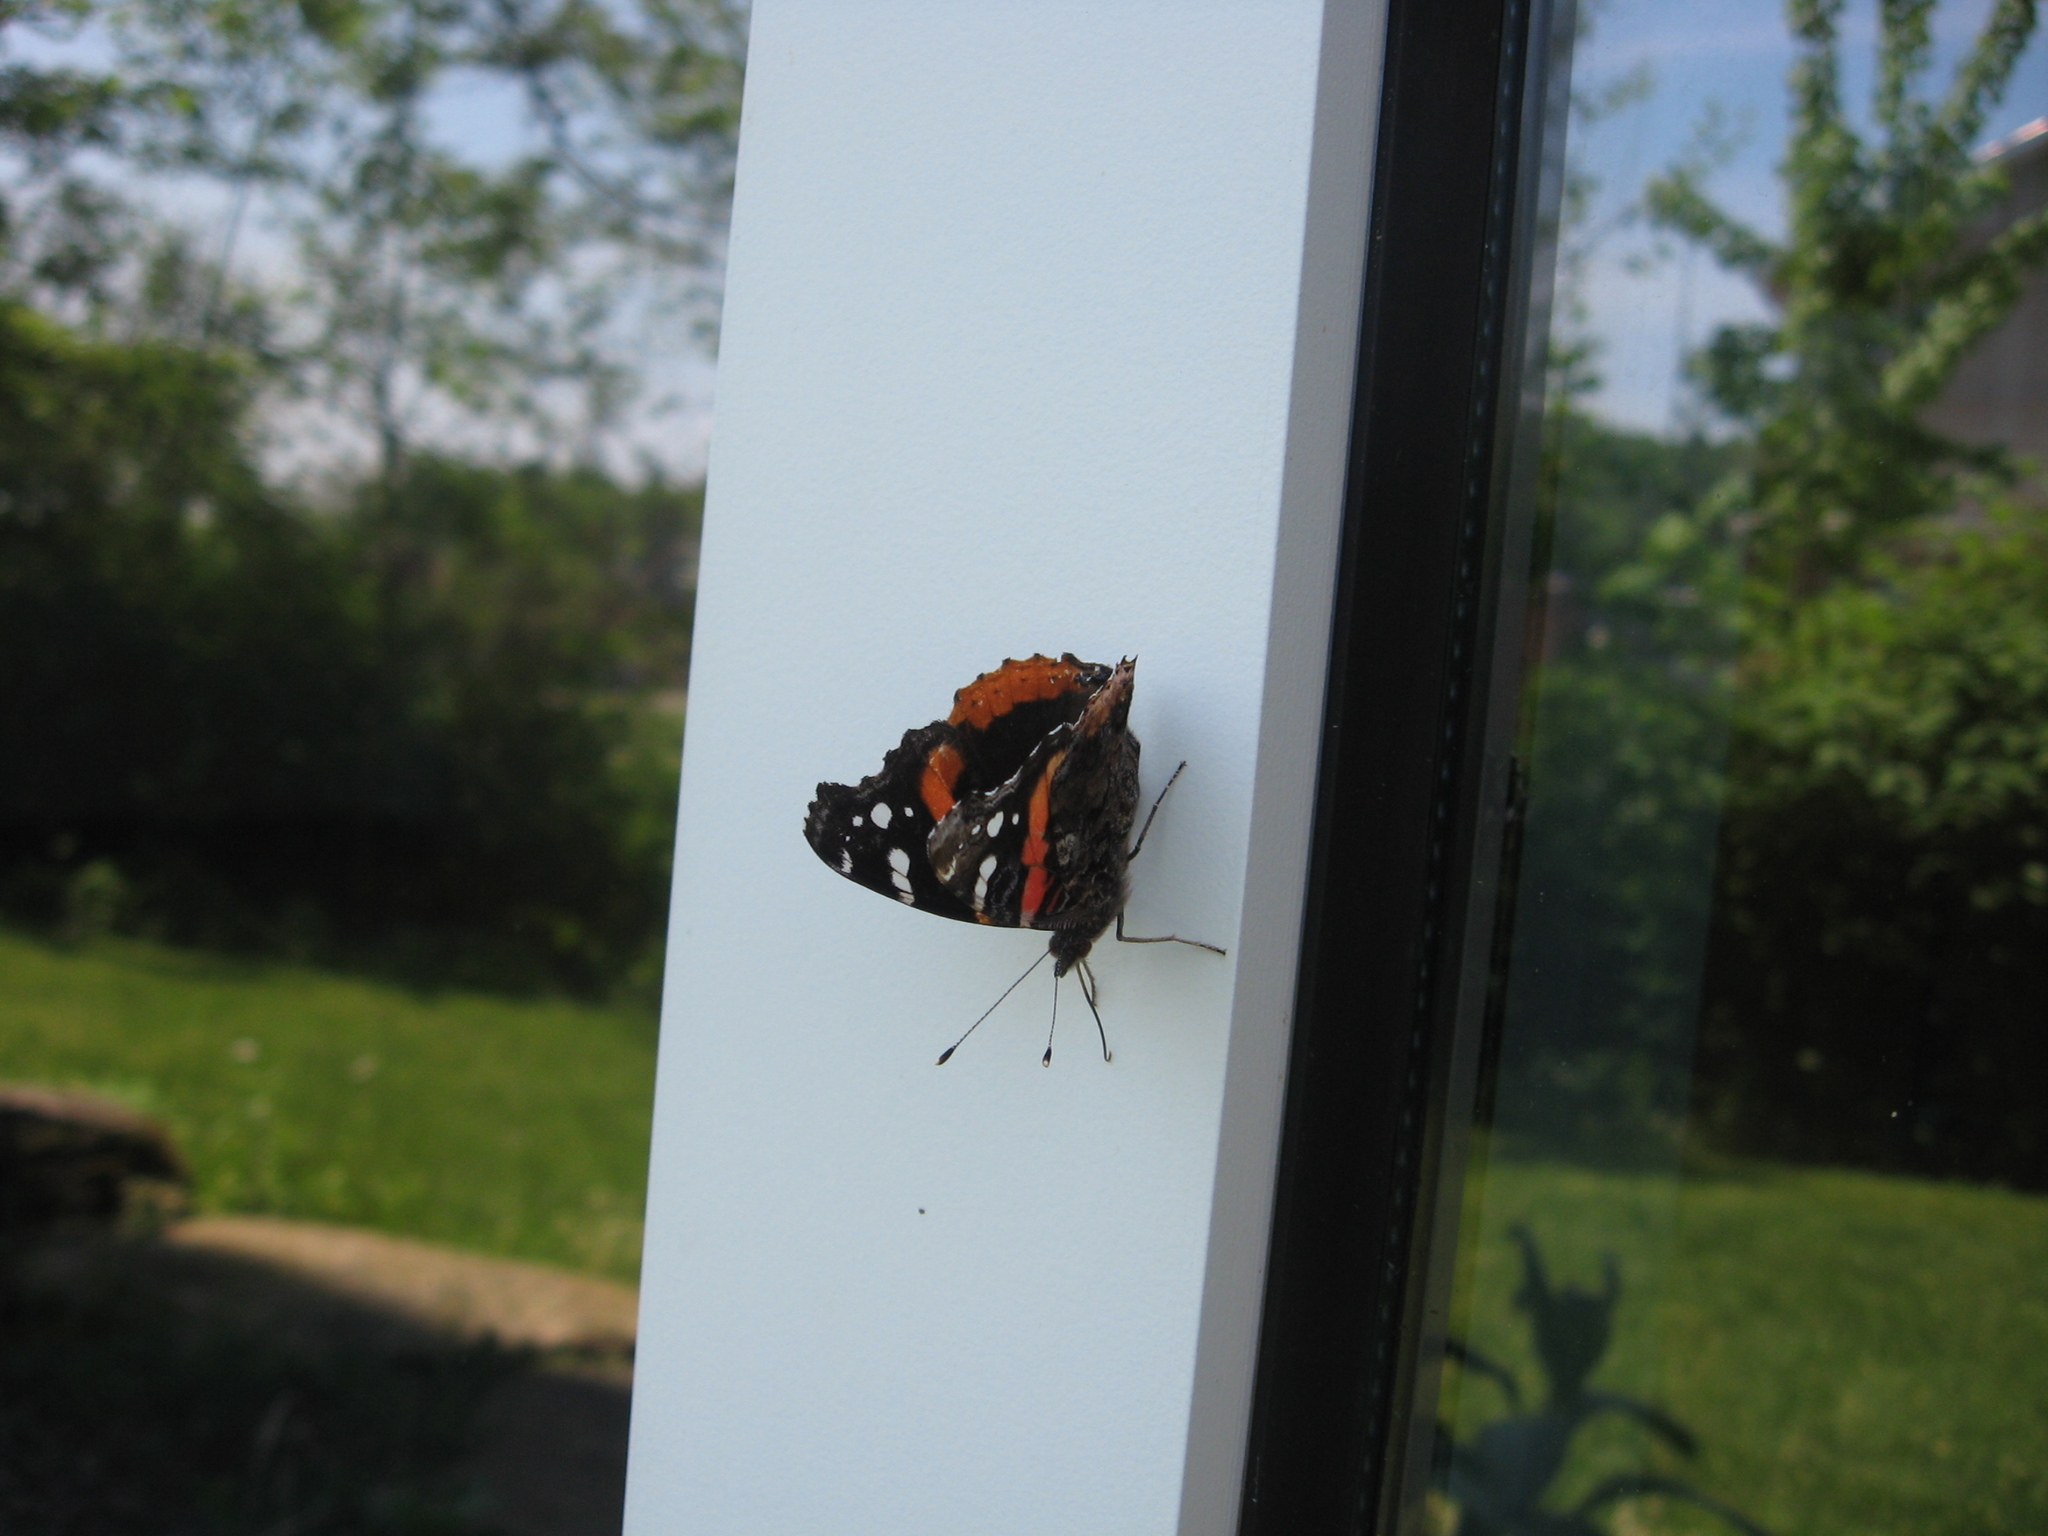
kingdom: Animalia
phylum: Arthropoda
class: Insecta
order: Lepidoptera
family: Nymphalidae
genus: Vanessa
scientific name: Vanessa atalanta
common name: Red admiral
